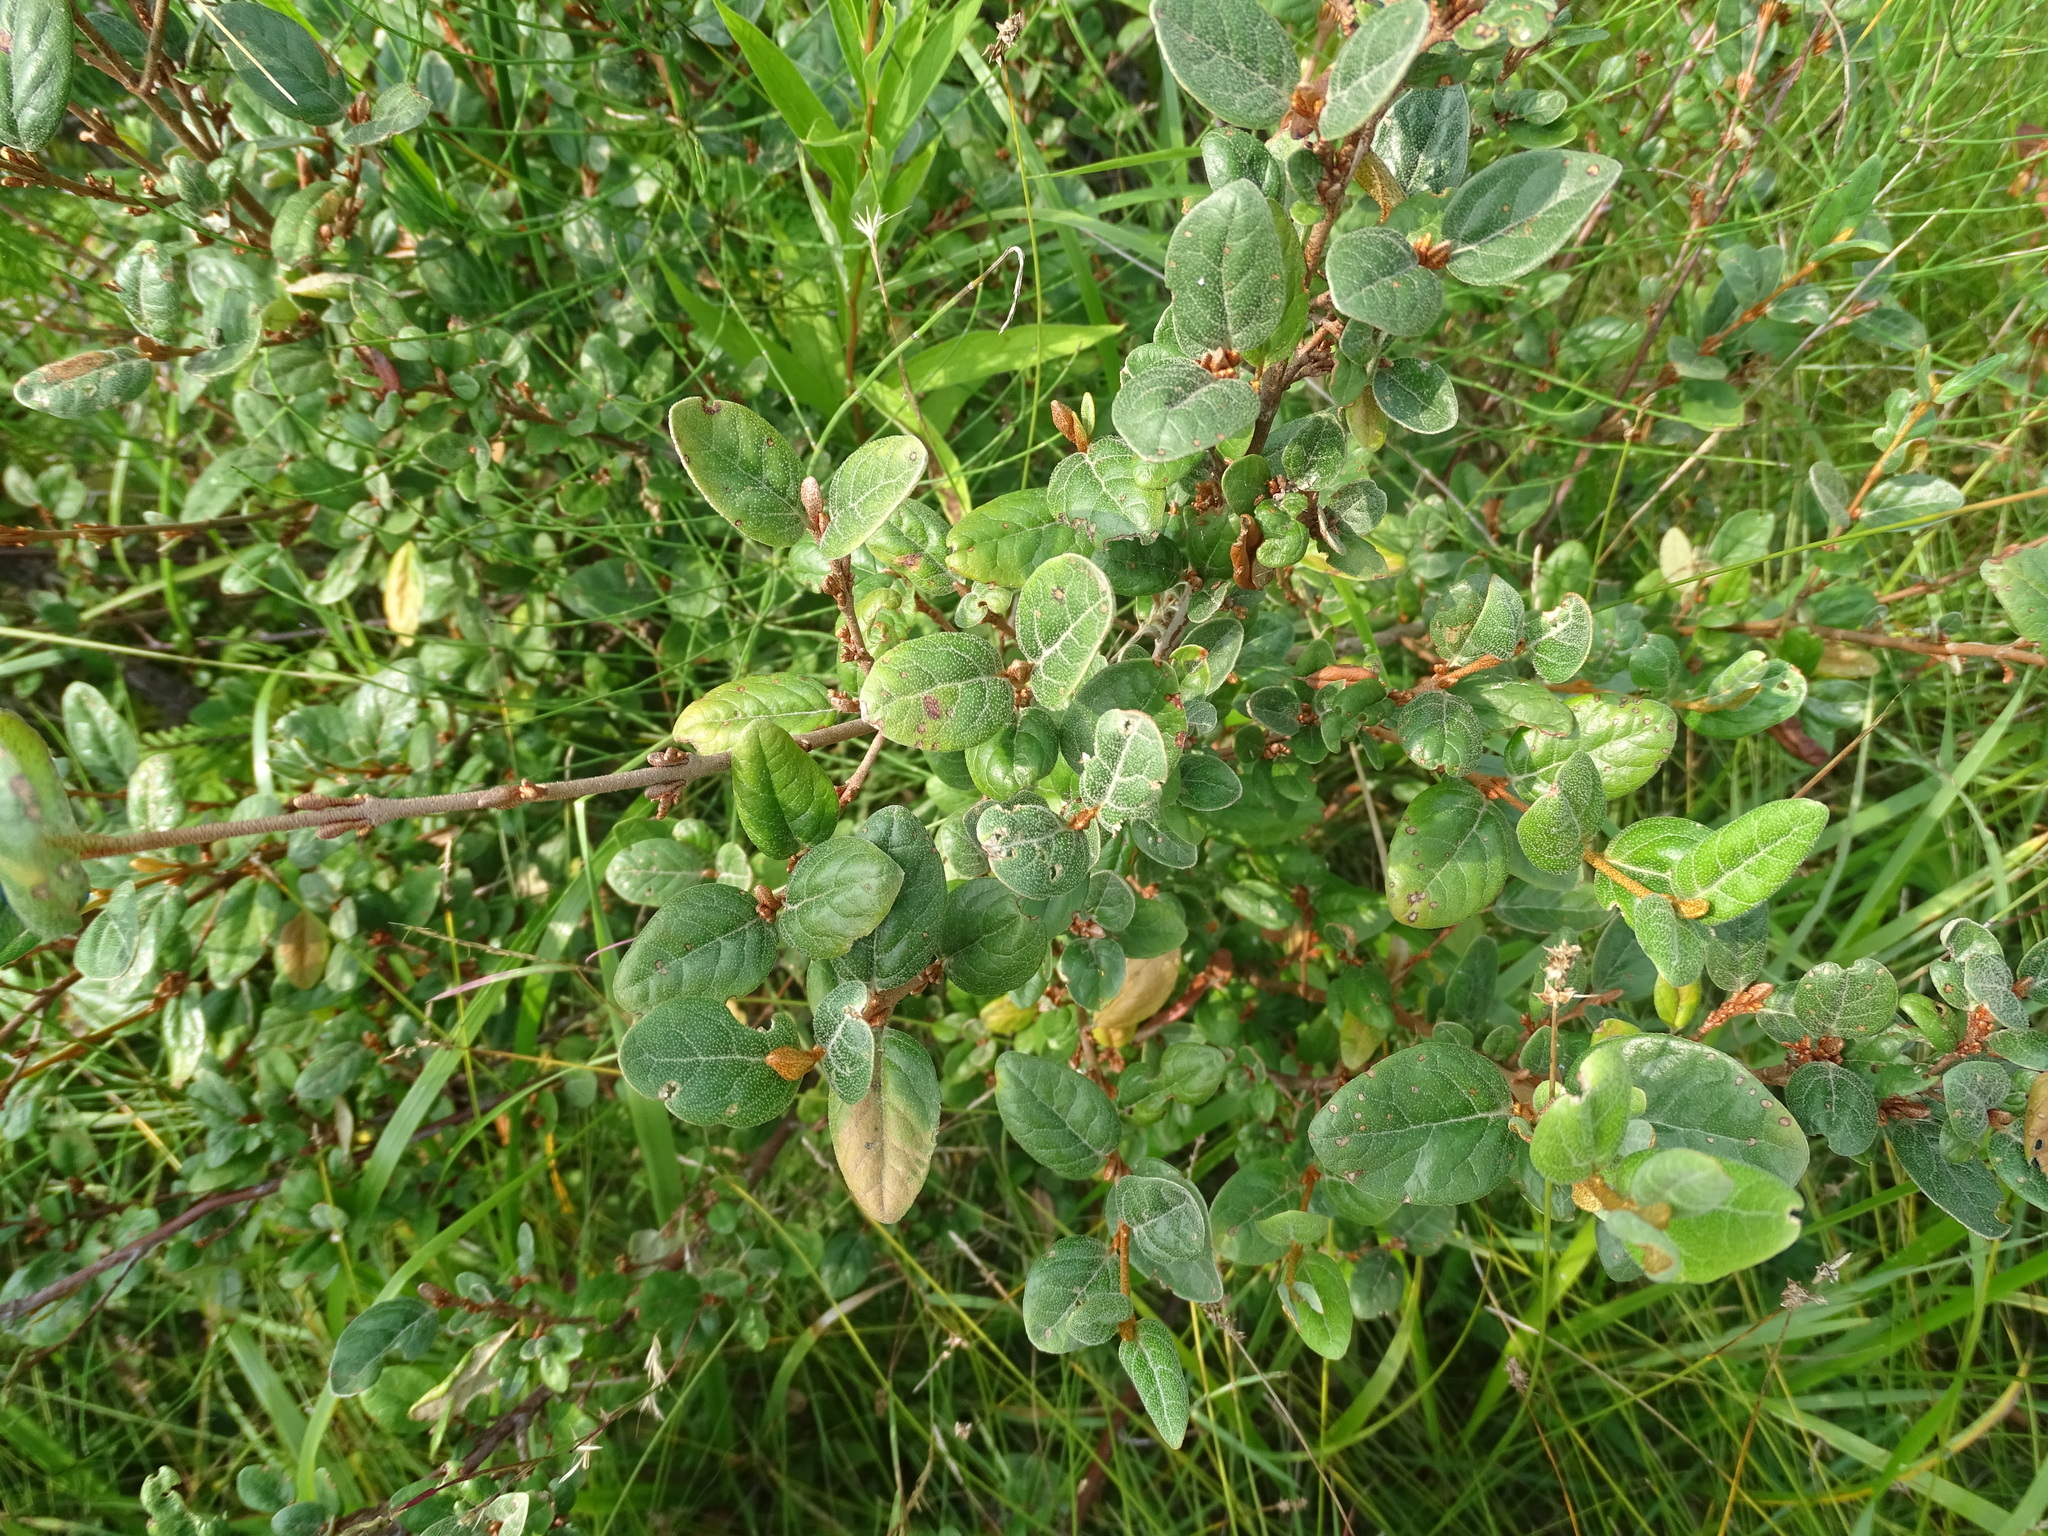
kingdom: Plantae
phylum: Tracheophyta
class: Magnoliopsida
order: Rosales
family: Elaeagnaceae
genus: Shepherdia
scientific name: Shepherdia canadensis
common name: Soapberry
